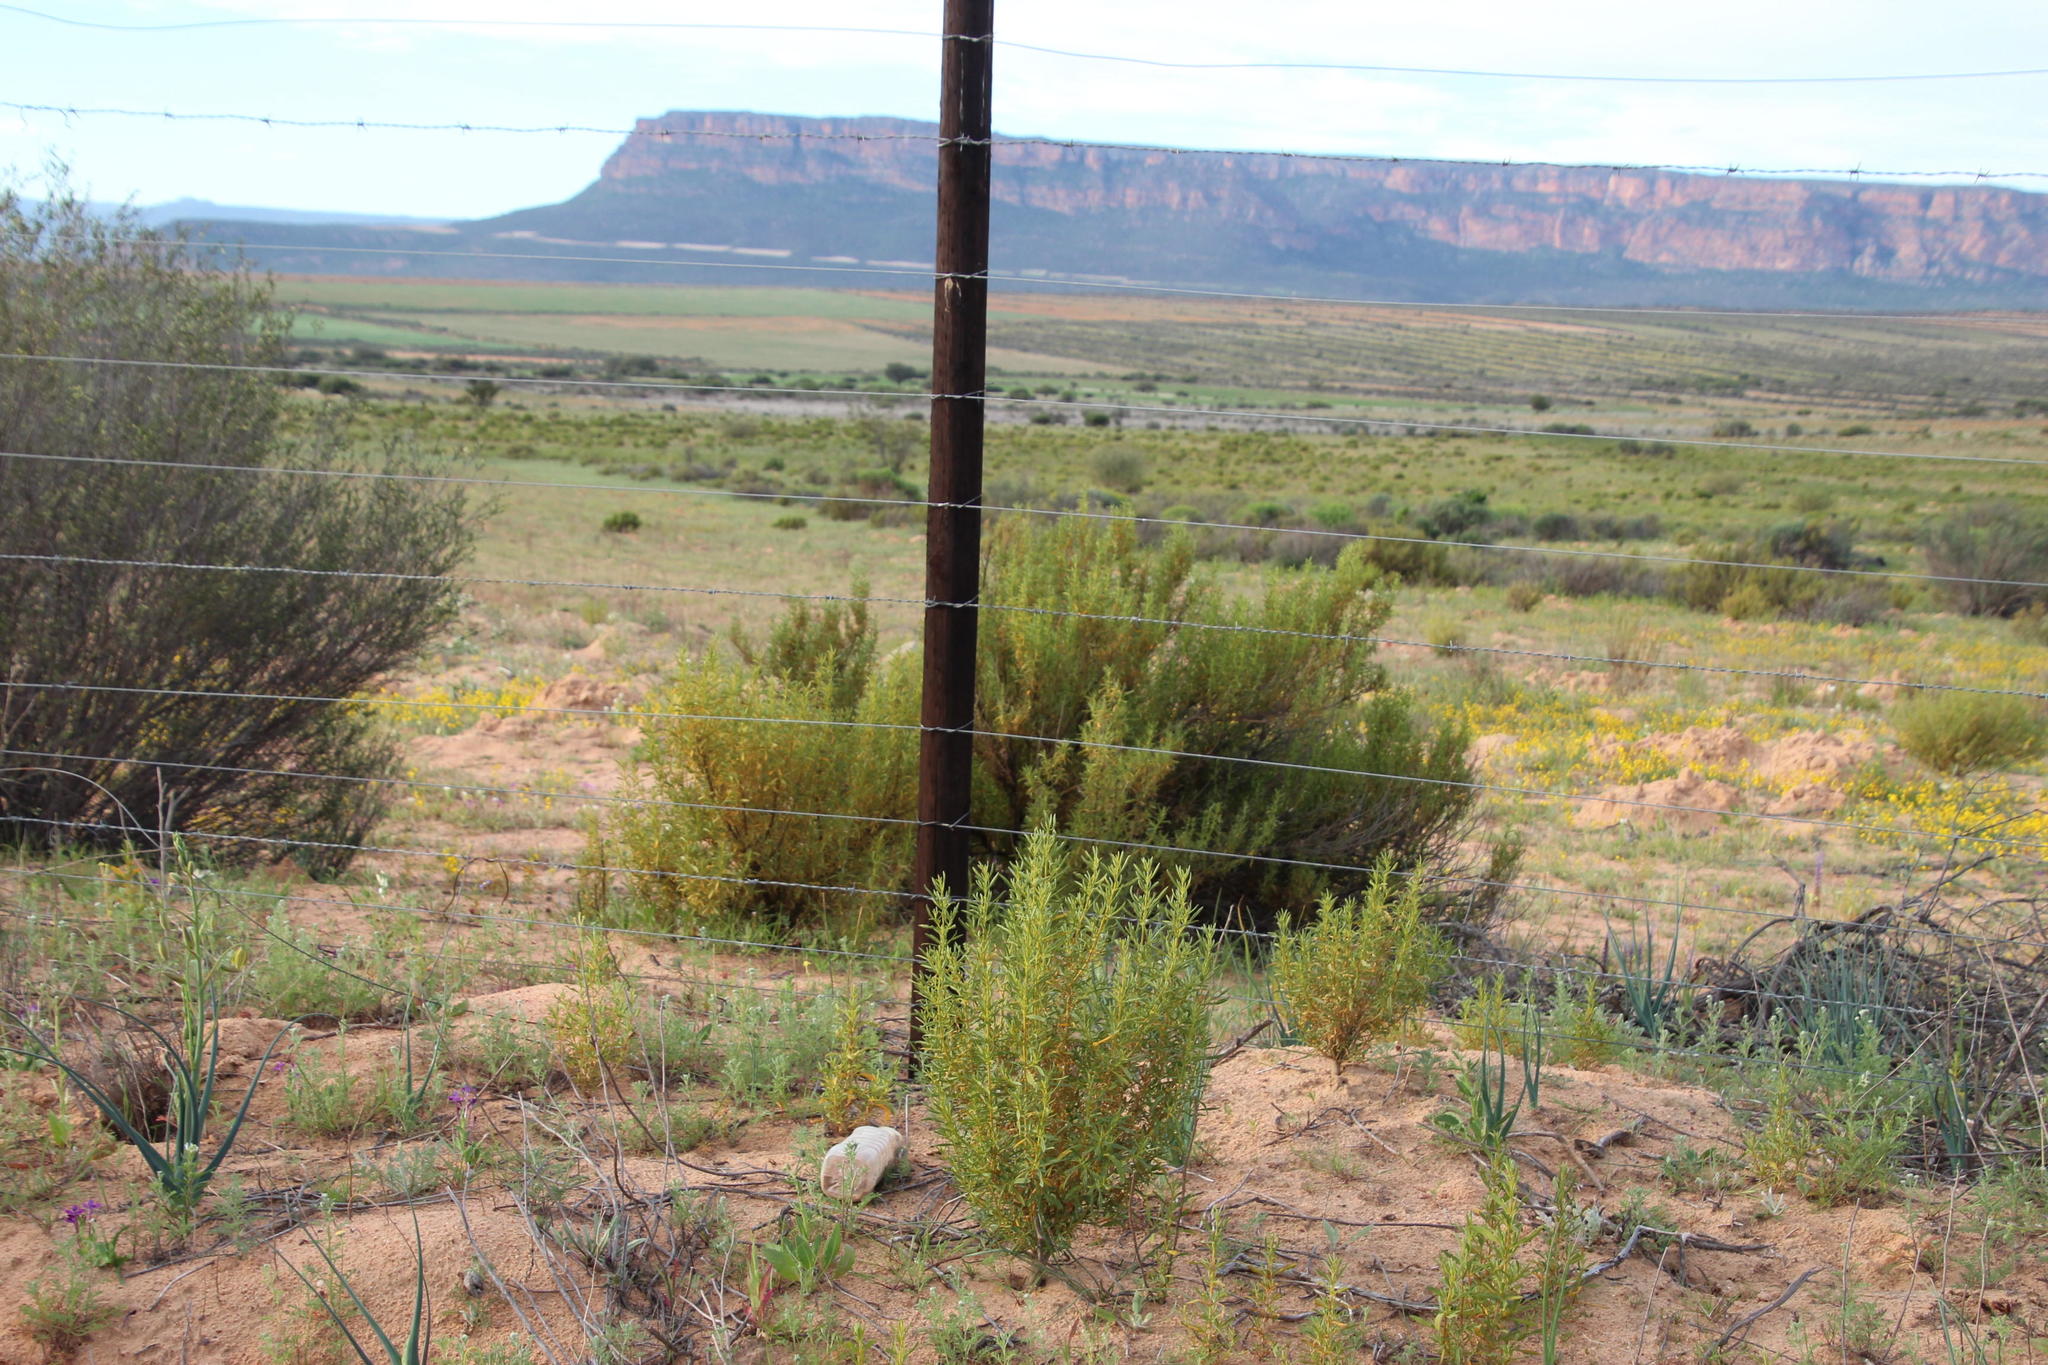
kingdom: Plantae
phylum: Tracheophyta
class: Magnoliopsida
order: Caryophyllales
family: Aizoaceae
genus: Aizoon
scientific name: Aizoon africanum
